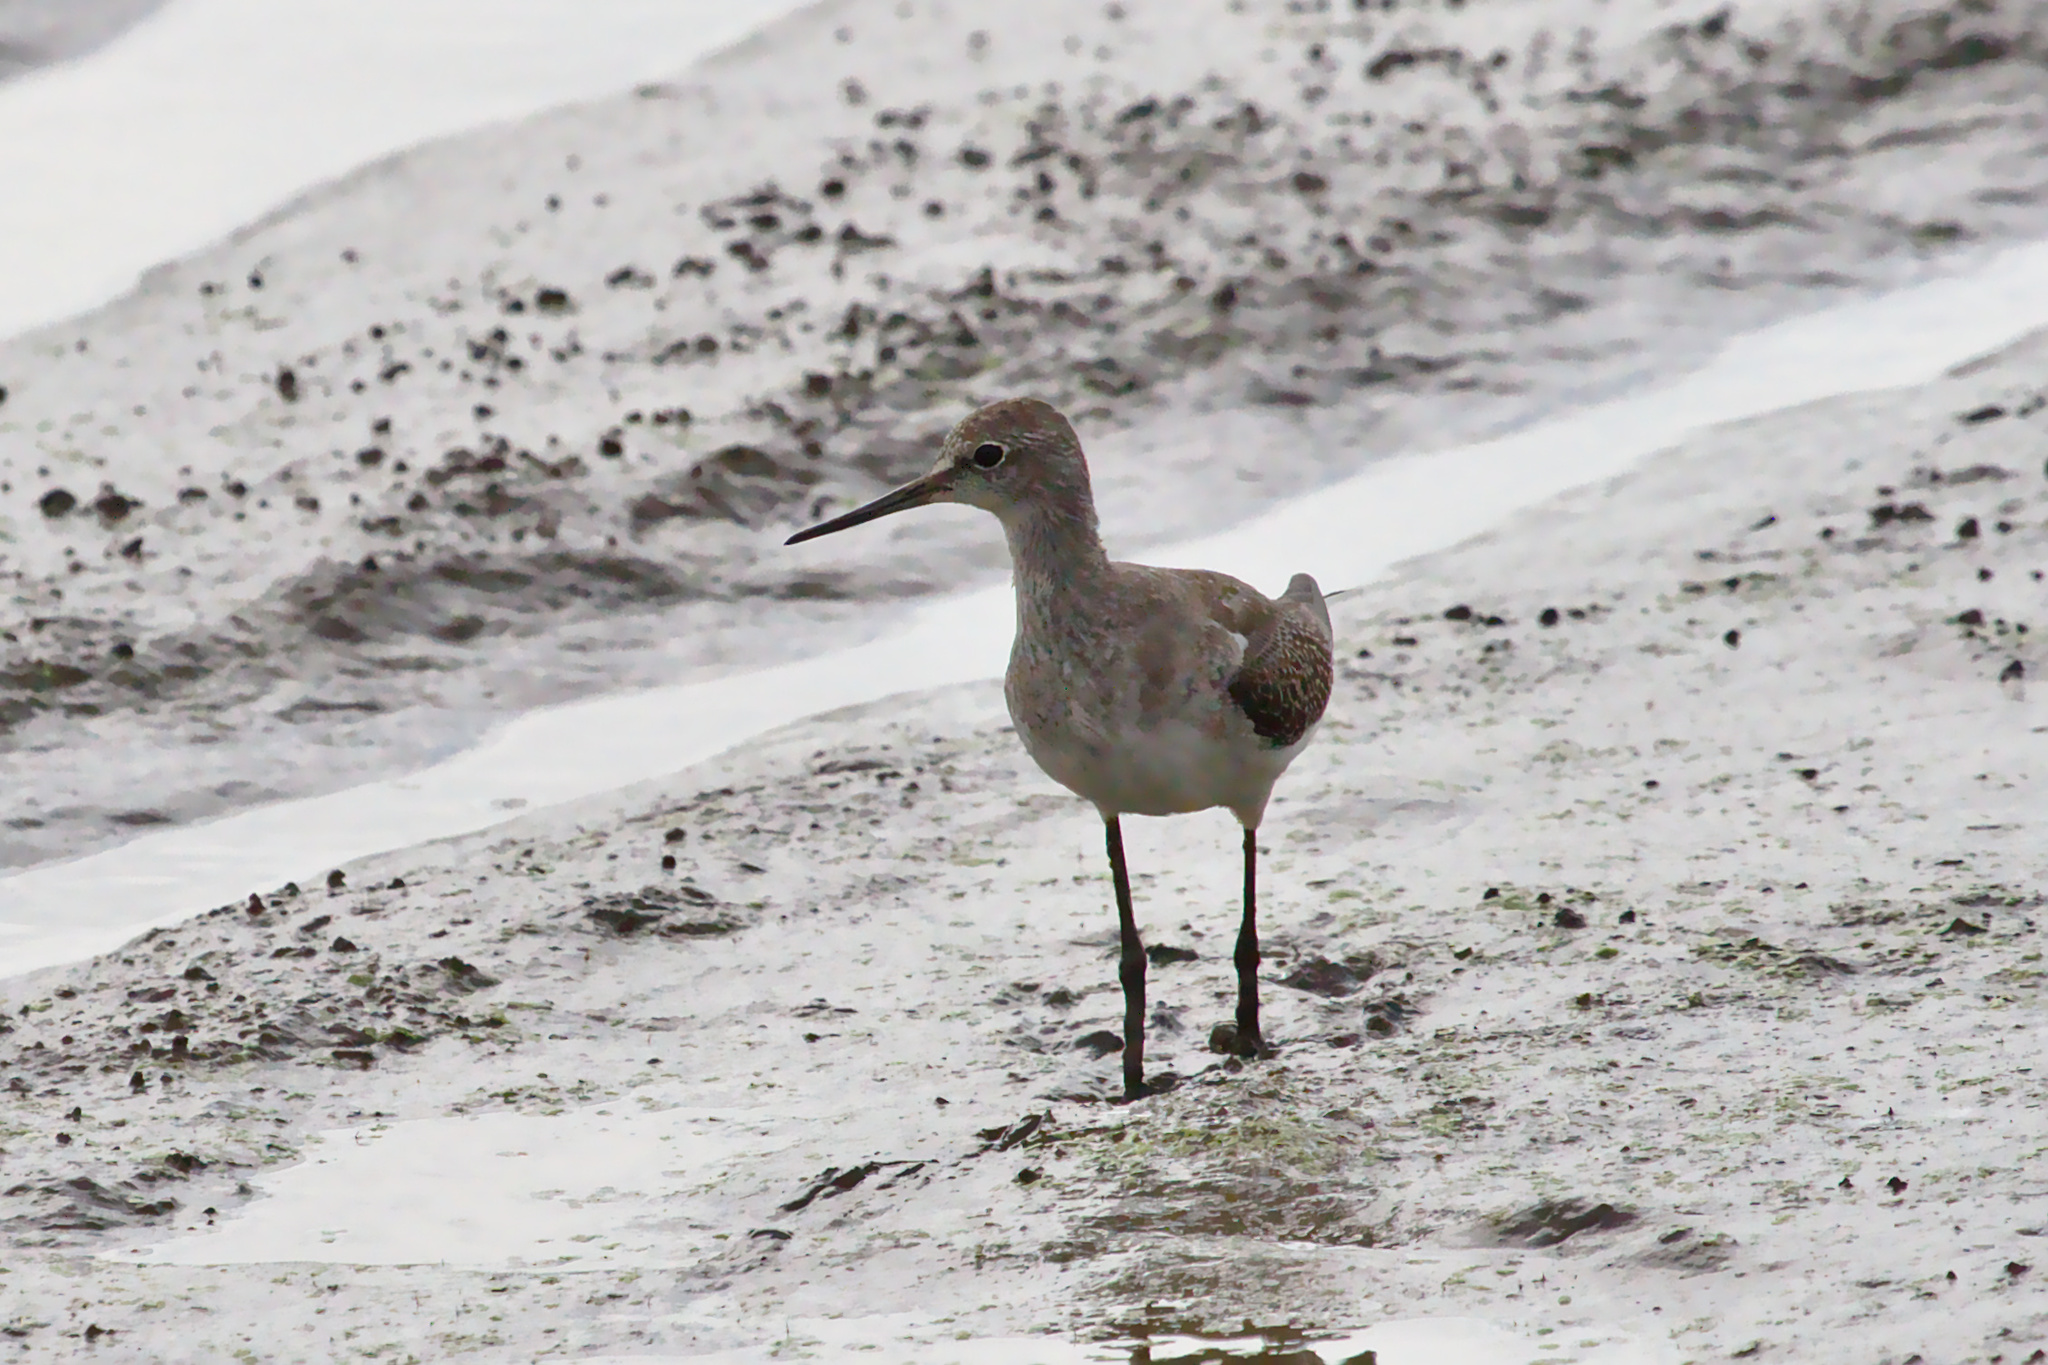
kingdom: Animalia
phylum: Chordata
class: Aves
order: Charadriiformes
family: Scolopacidae
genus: Tringa
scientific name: Tringa solitaria
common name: Solitary sandpiper
